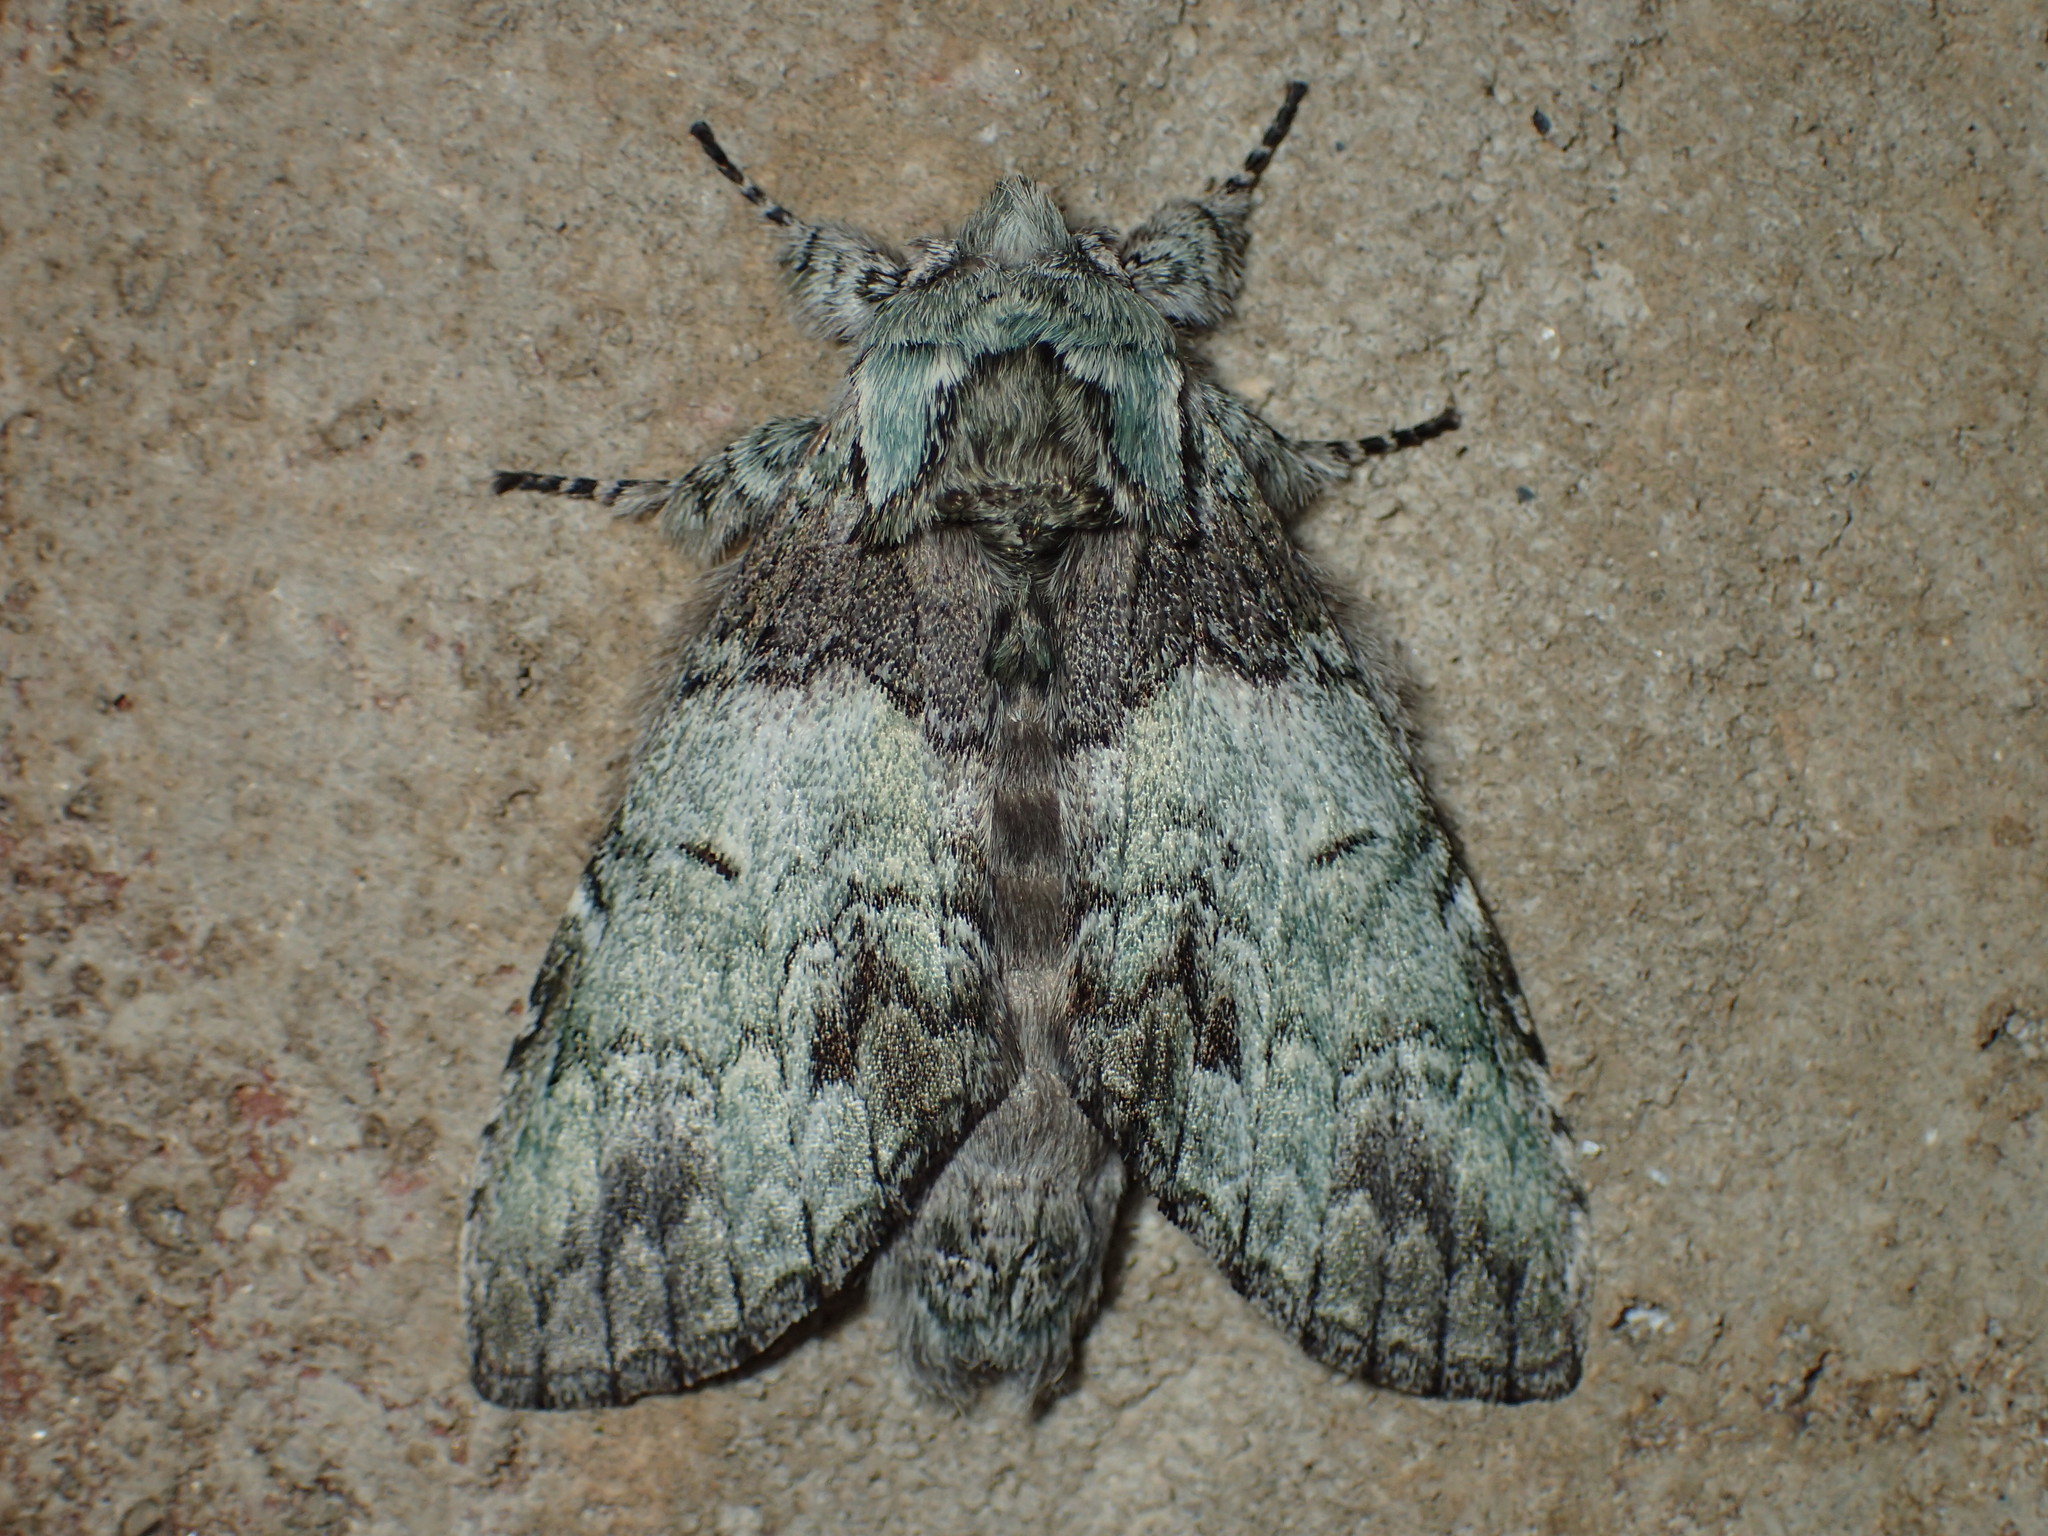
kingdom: Animalia
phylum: Arthropoda
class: Insecta
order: Lepidoptera
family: Notodontidae
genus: Macrurocampa
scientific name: Macrurocampa marthesia
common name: Mottled prominent
